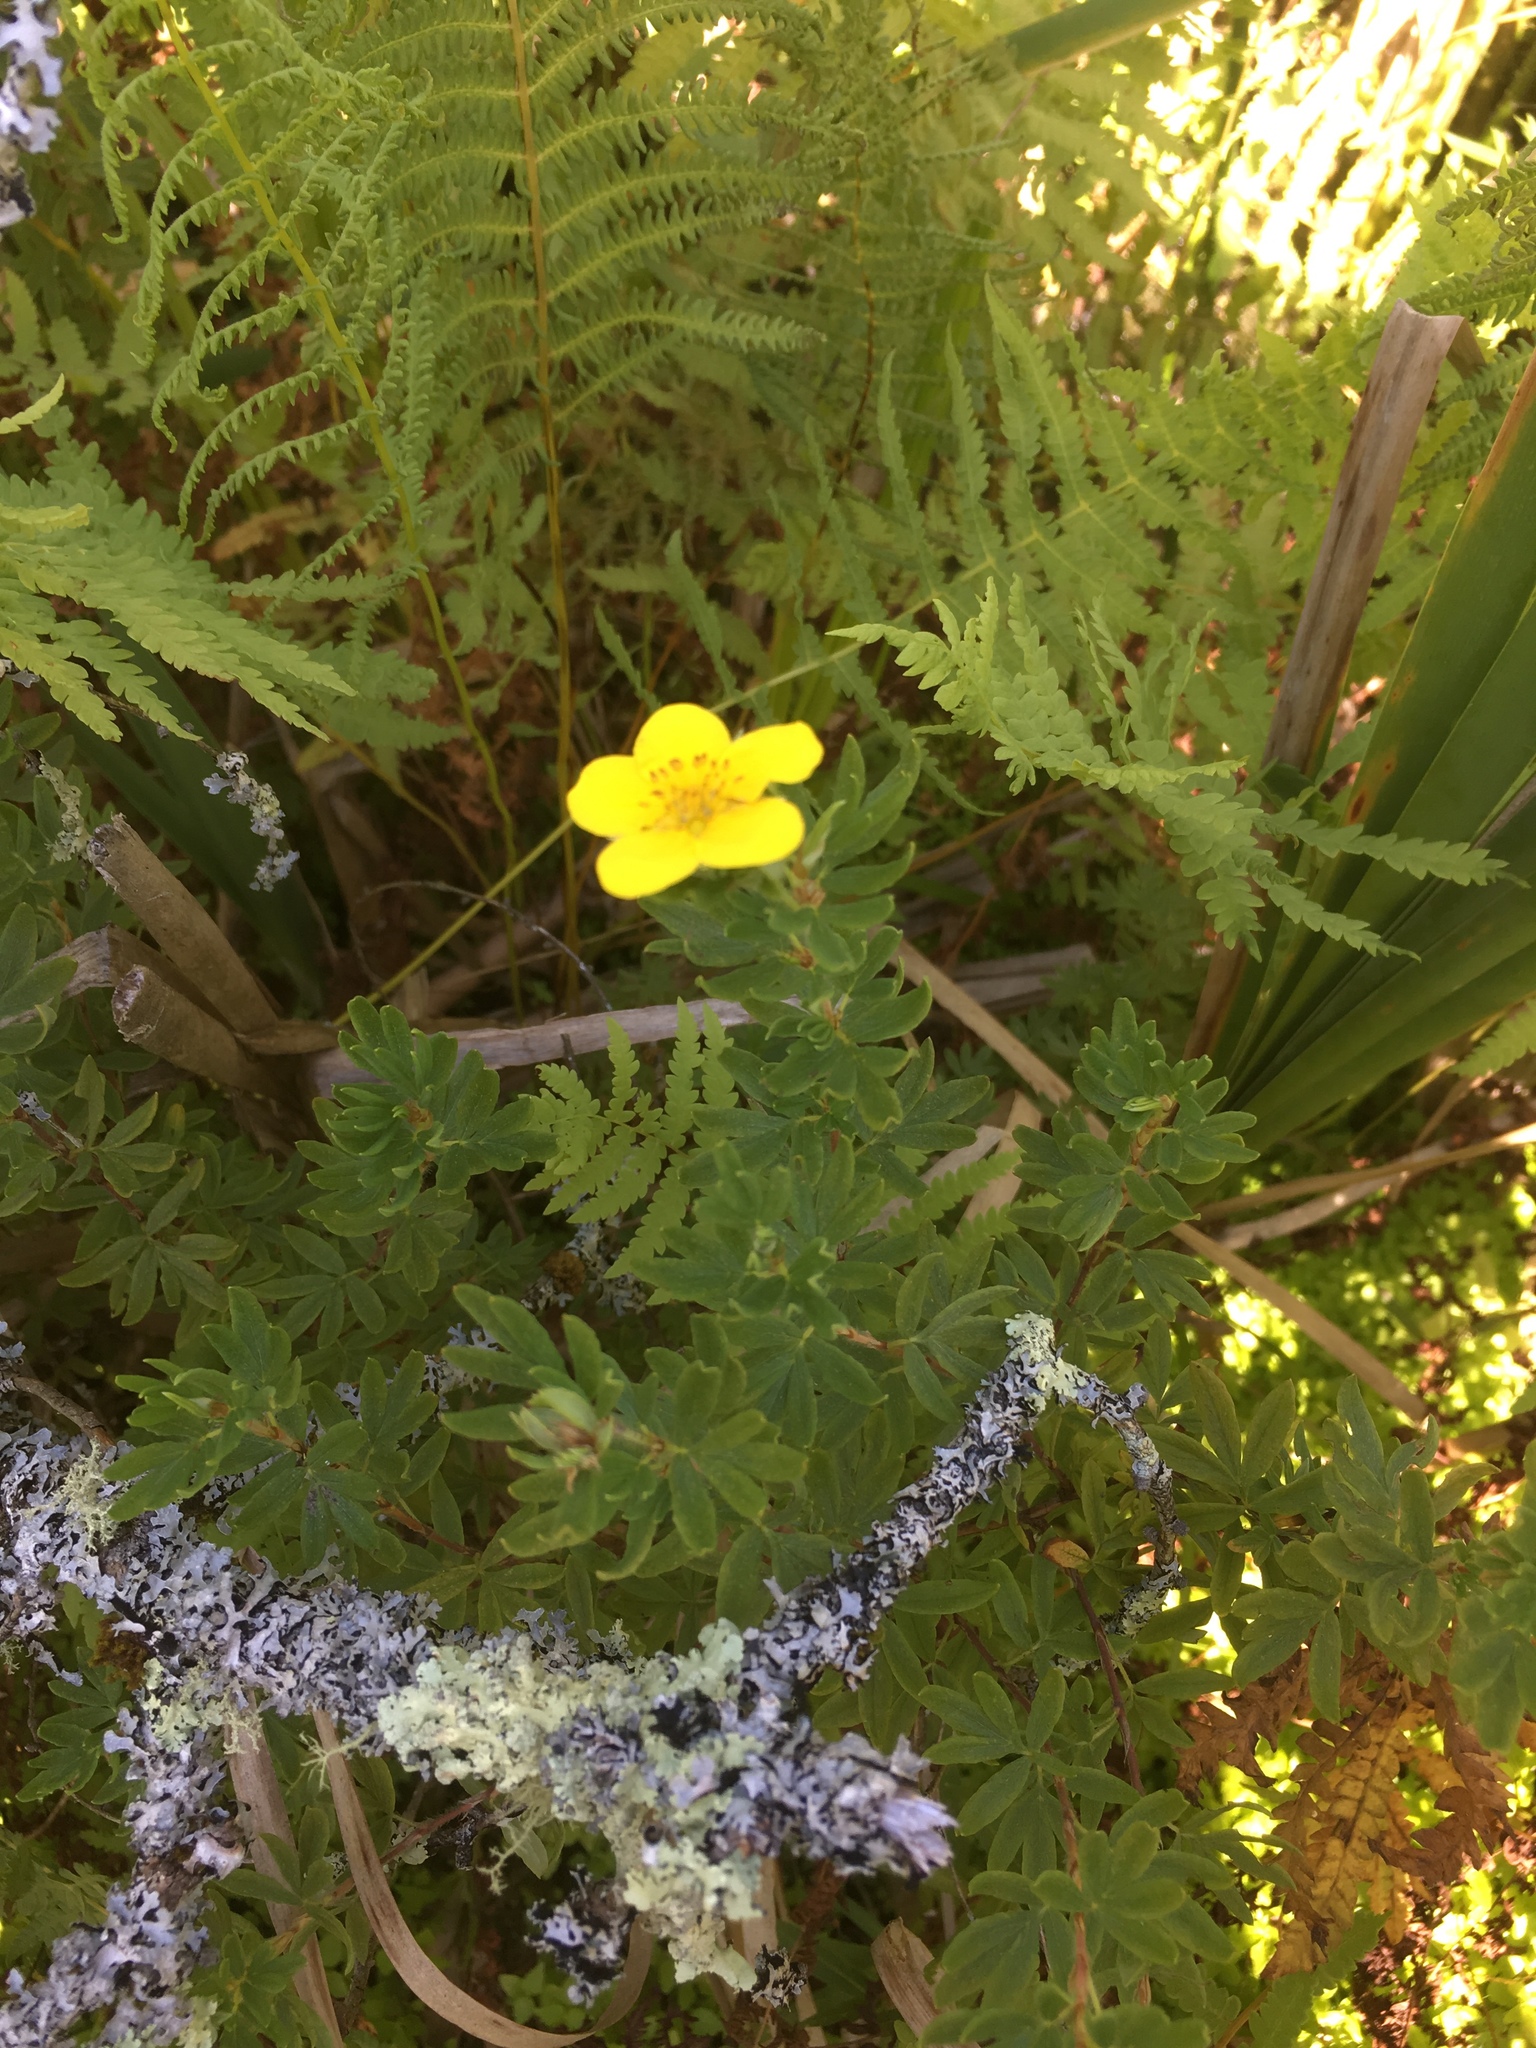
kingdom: Plantae
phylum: Tracheophyta
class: Polypodiopsida
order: Polypodiales
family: Thelypteridaceae
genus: Thelypteris
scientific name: Thelypteris palustris
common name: Marsh fern
